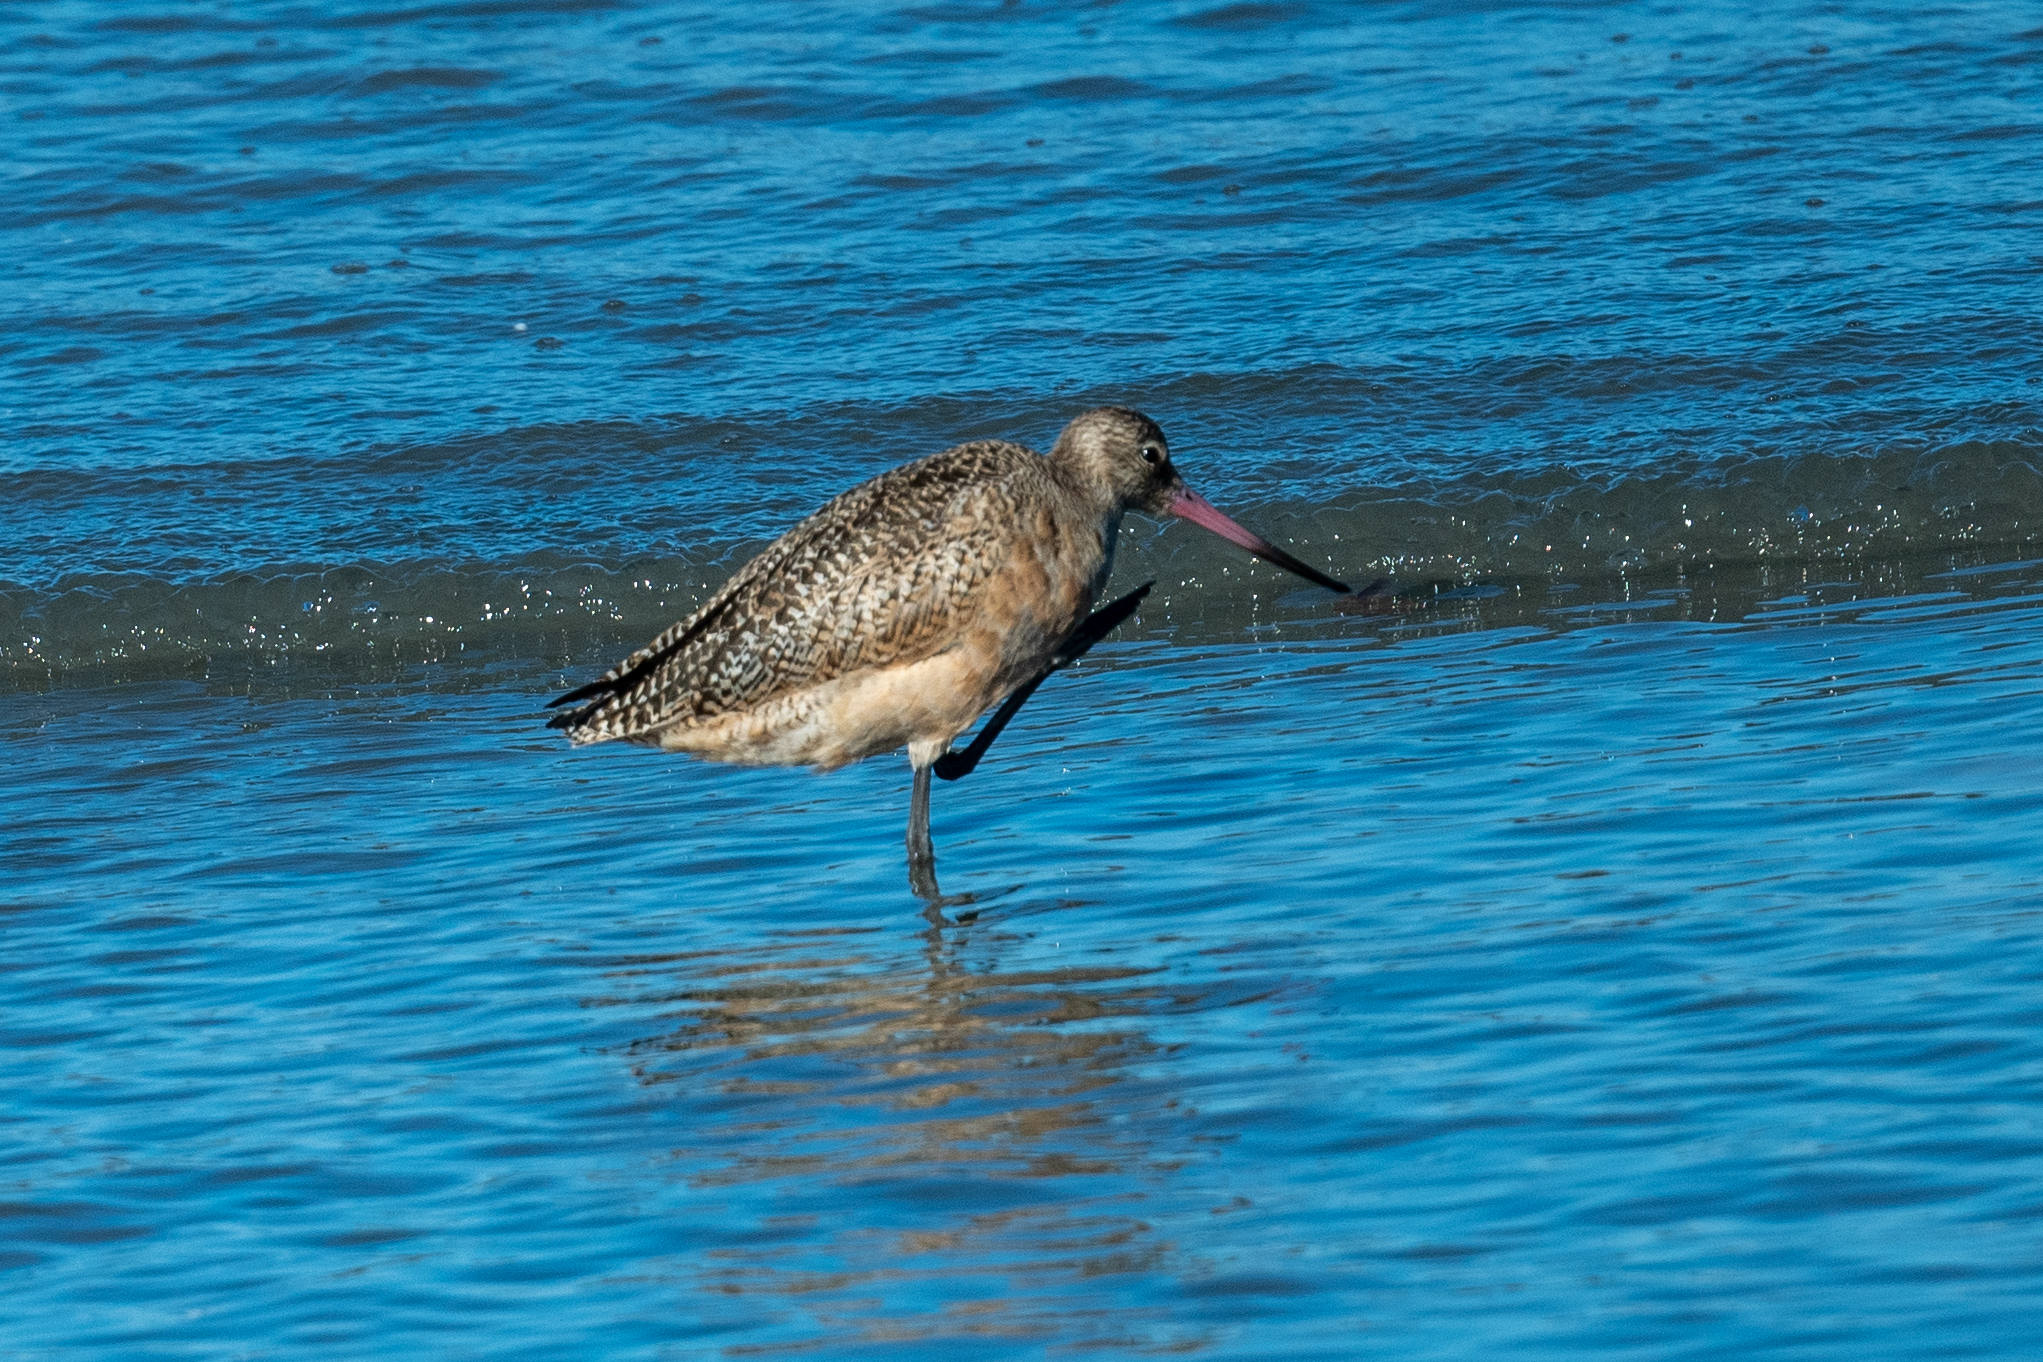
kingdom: Animalia
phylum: Chordata
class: Aves
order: Charadriiformes
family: Scolopacidae
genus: Limosa
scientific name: Limosa fedoa
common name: Marbled godwit
